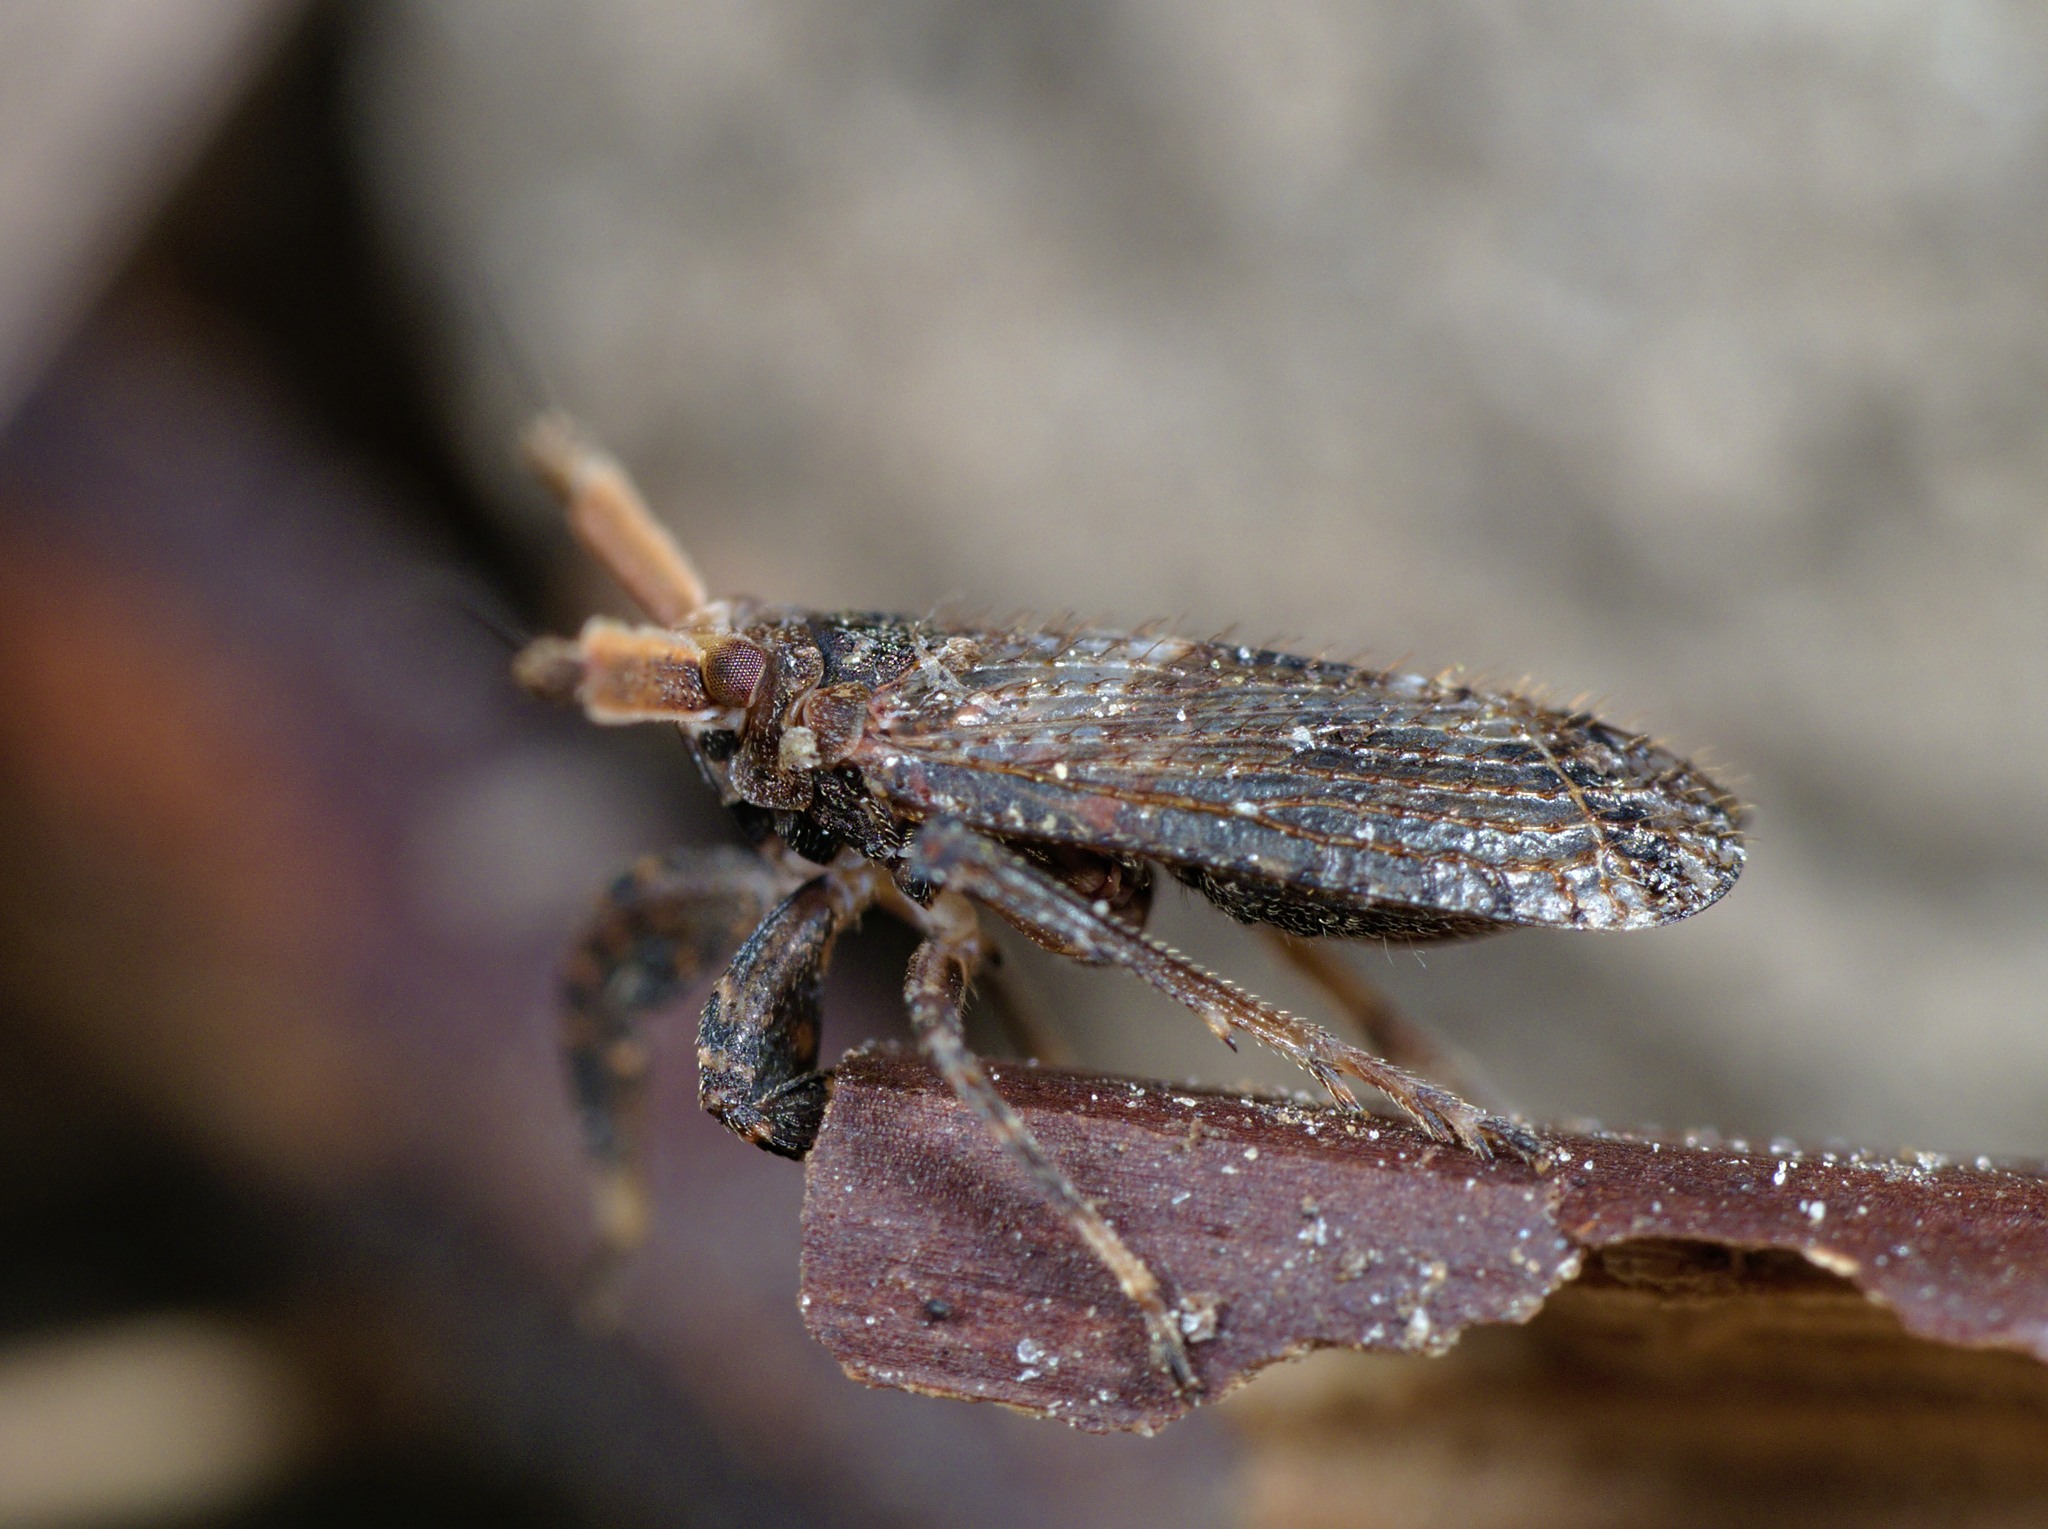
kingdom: Animalia
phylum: Arthropoda
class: Insecta
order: Hemiptera
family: Delphacidae
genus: Asiraca
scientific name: Asiraca clavicornis
